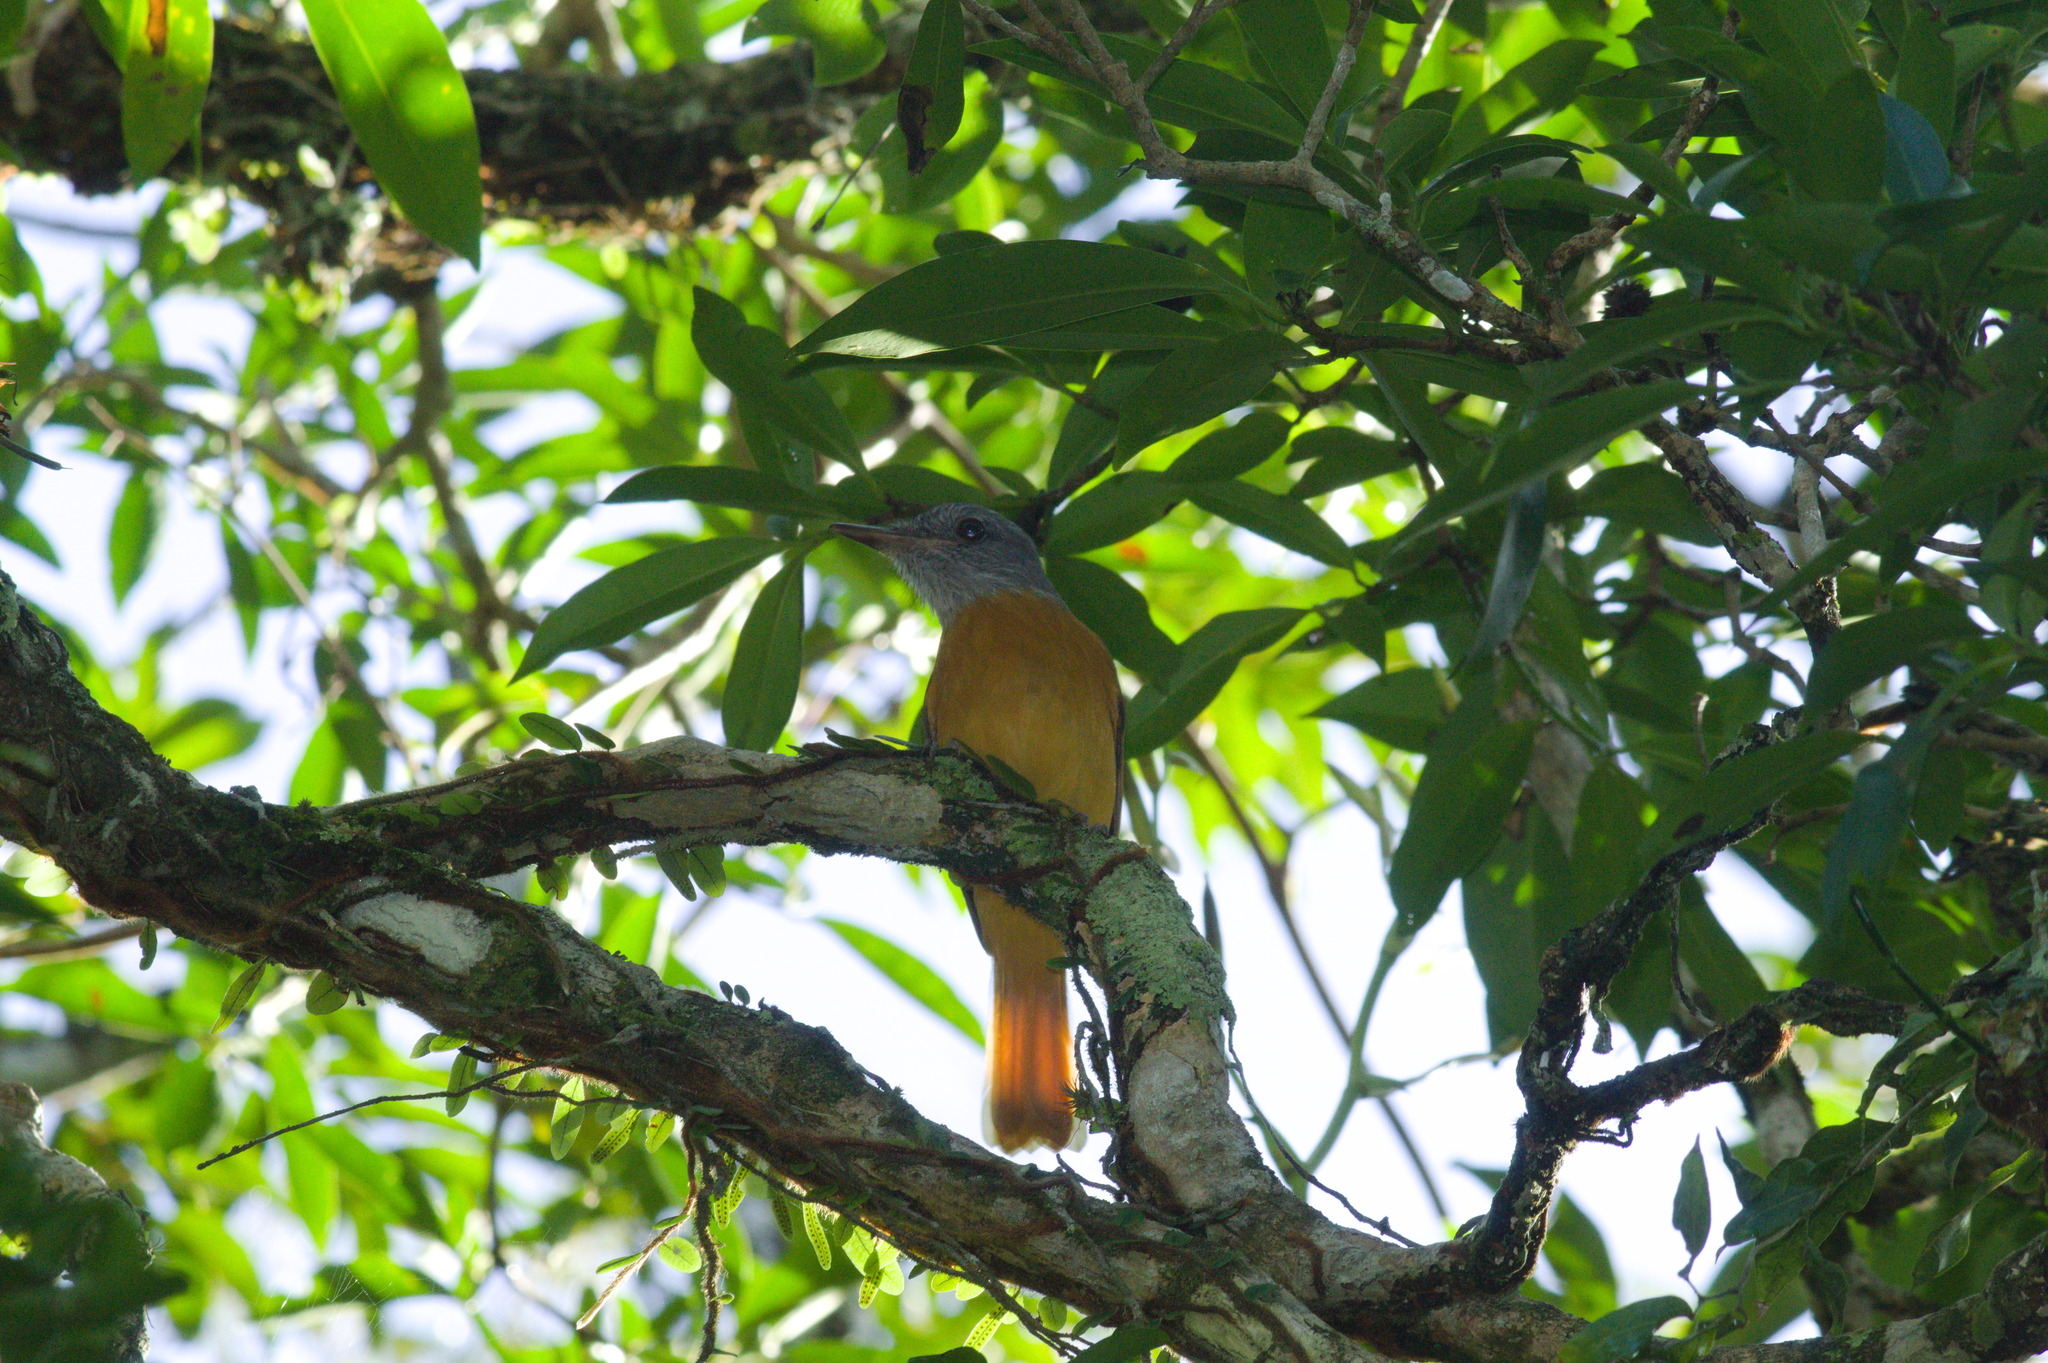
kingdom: Animalia
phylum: Chordata
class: Aves
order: Passeriformes
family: Tyrannidae
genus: Attila
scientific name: Attila rufus
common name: Grey-hooded attila
